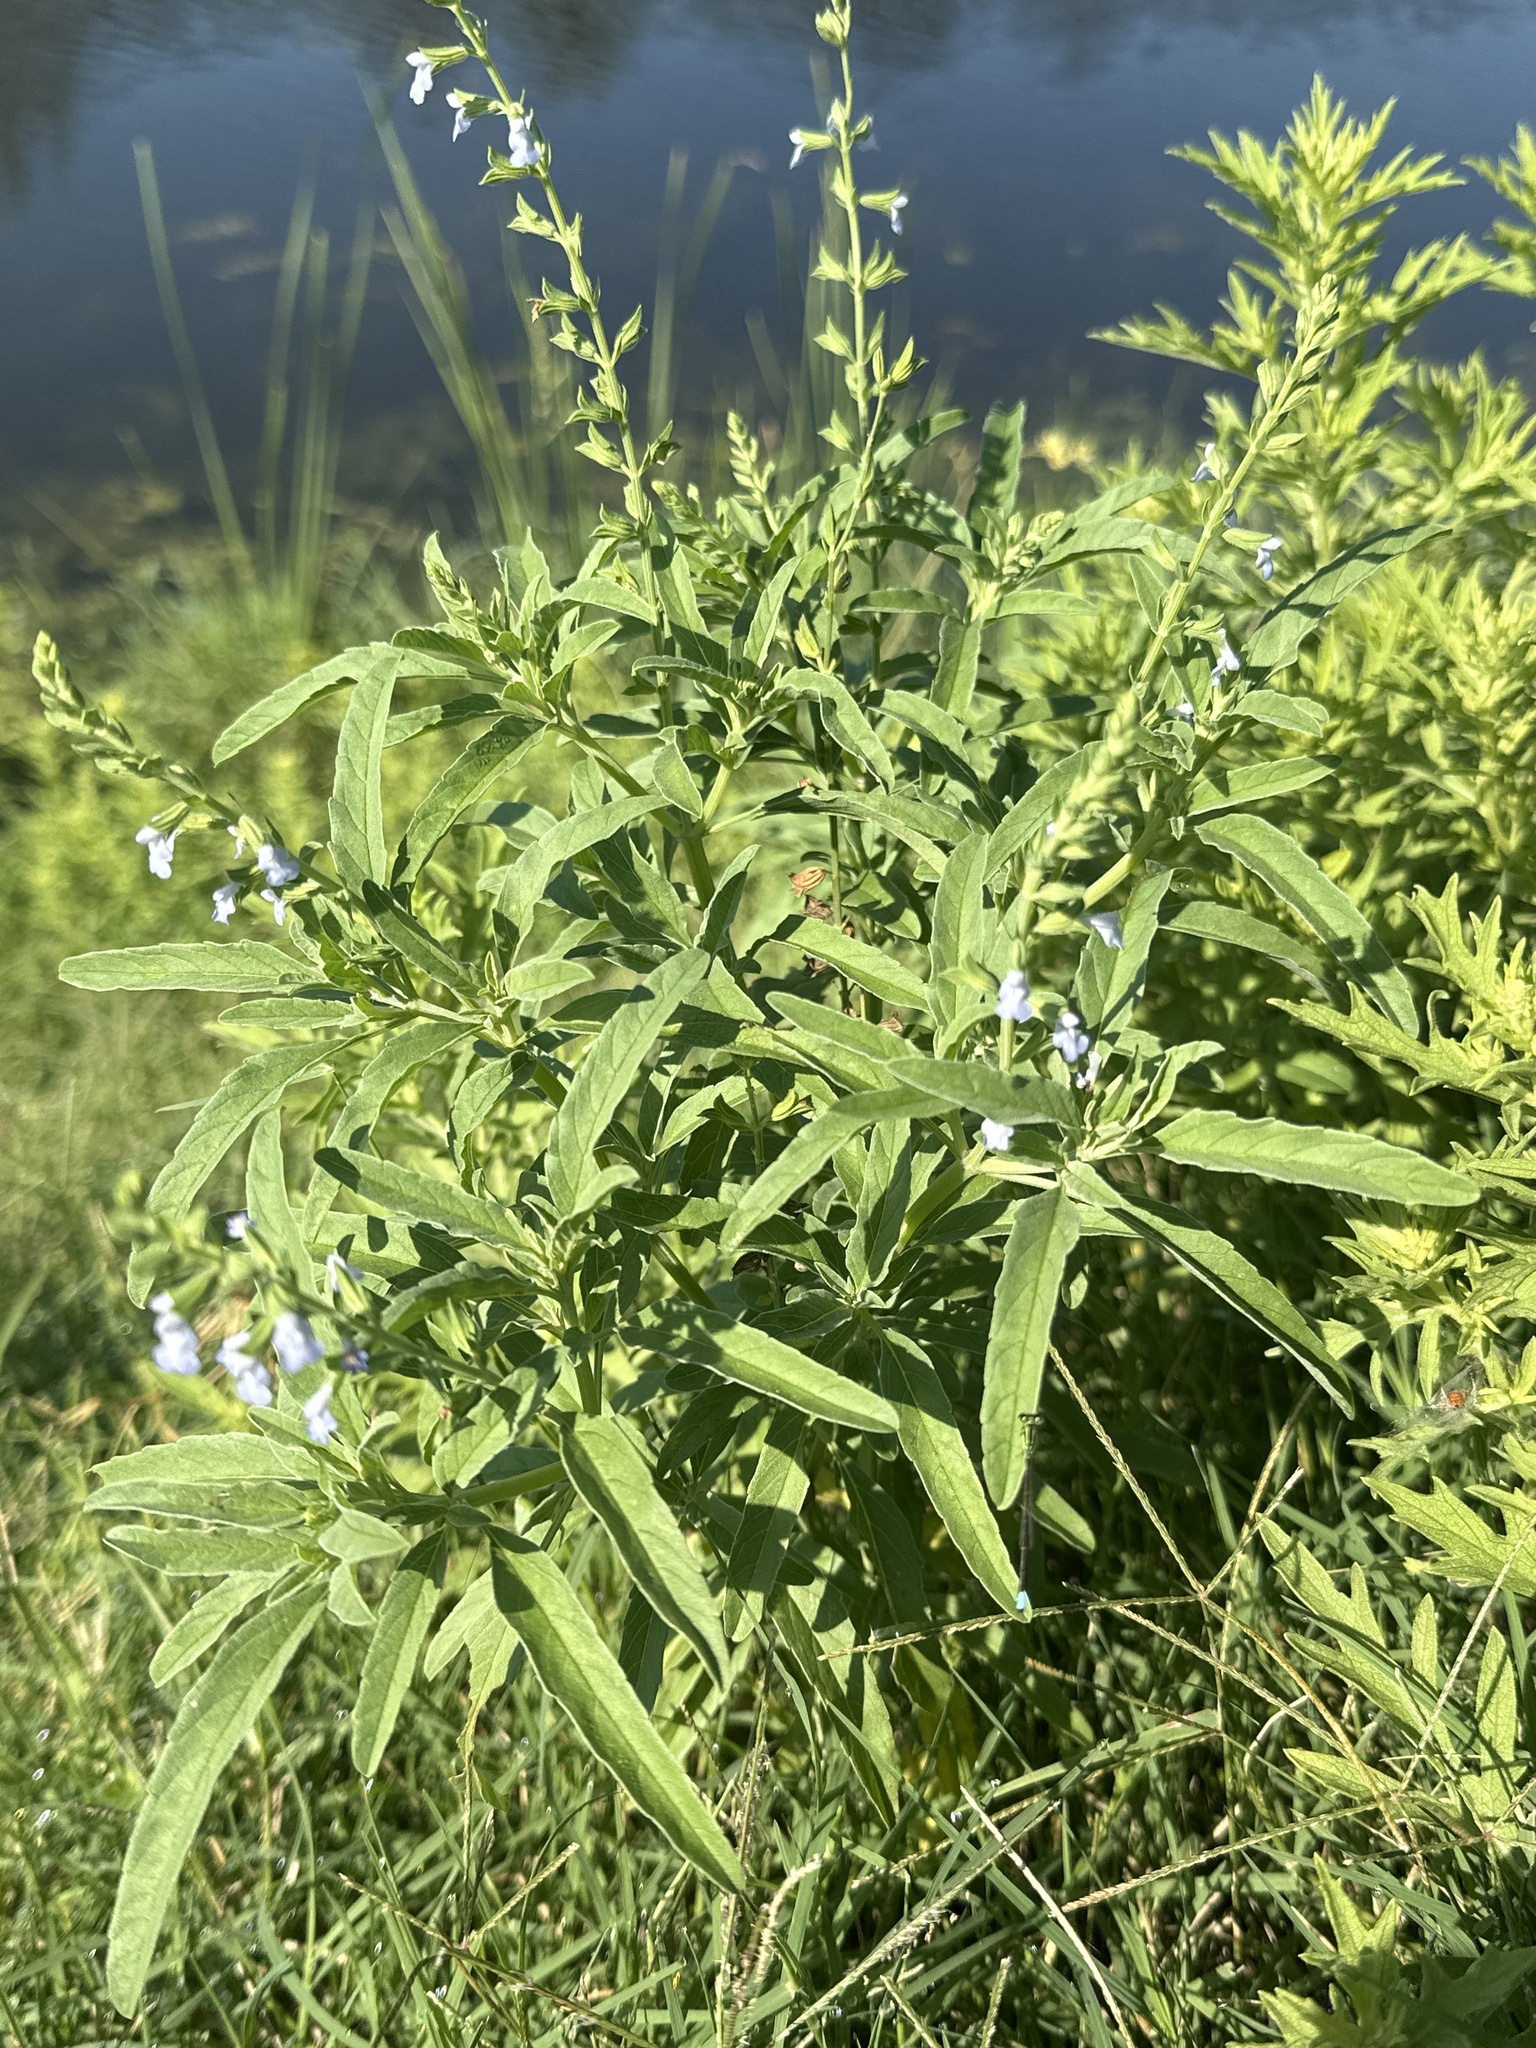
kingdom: Plantae
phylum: Tracheophyta
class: Magnoliopsida
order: Lamiales
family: Lamiaceae
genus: Salvia
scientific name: Salvia reflexa
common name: Mintweed
